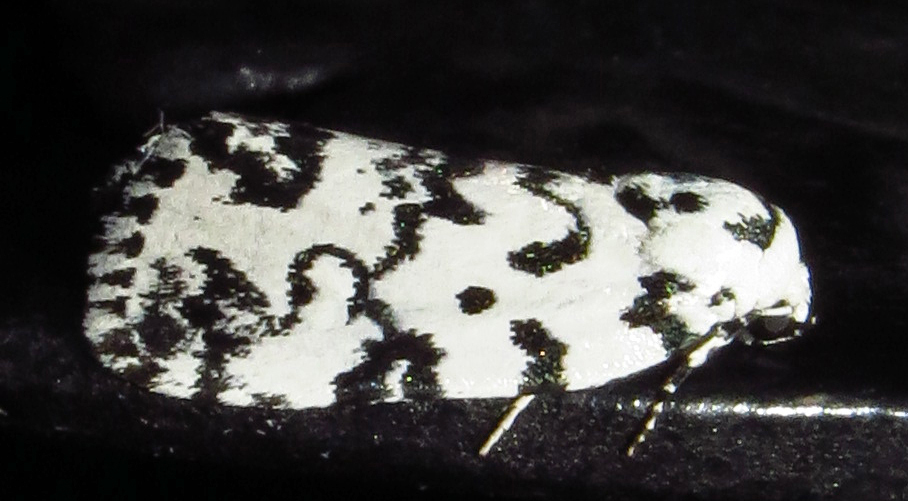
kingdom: Animalia
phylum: Arthropoda
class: Insecta
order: Lepidoptera
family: Noctuidae
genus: Polygrammate
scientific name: Polygrammate hebraeicum
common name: Hebrew moth
